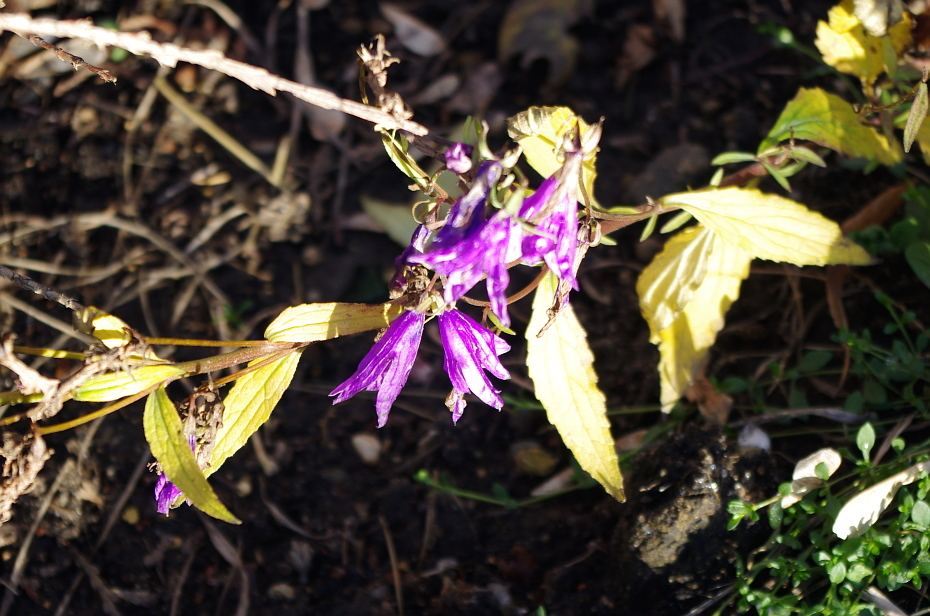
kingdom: Plantae
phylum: Tracheophyta
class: Magnoliopsida
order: Asterales
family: Campanulaceae
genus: Campanula
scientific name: Campanula rapunculoides
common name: Creeping bellflower
